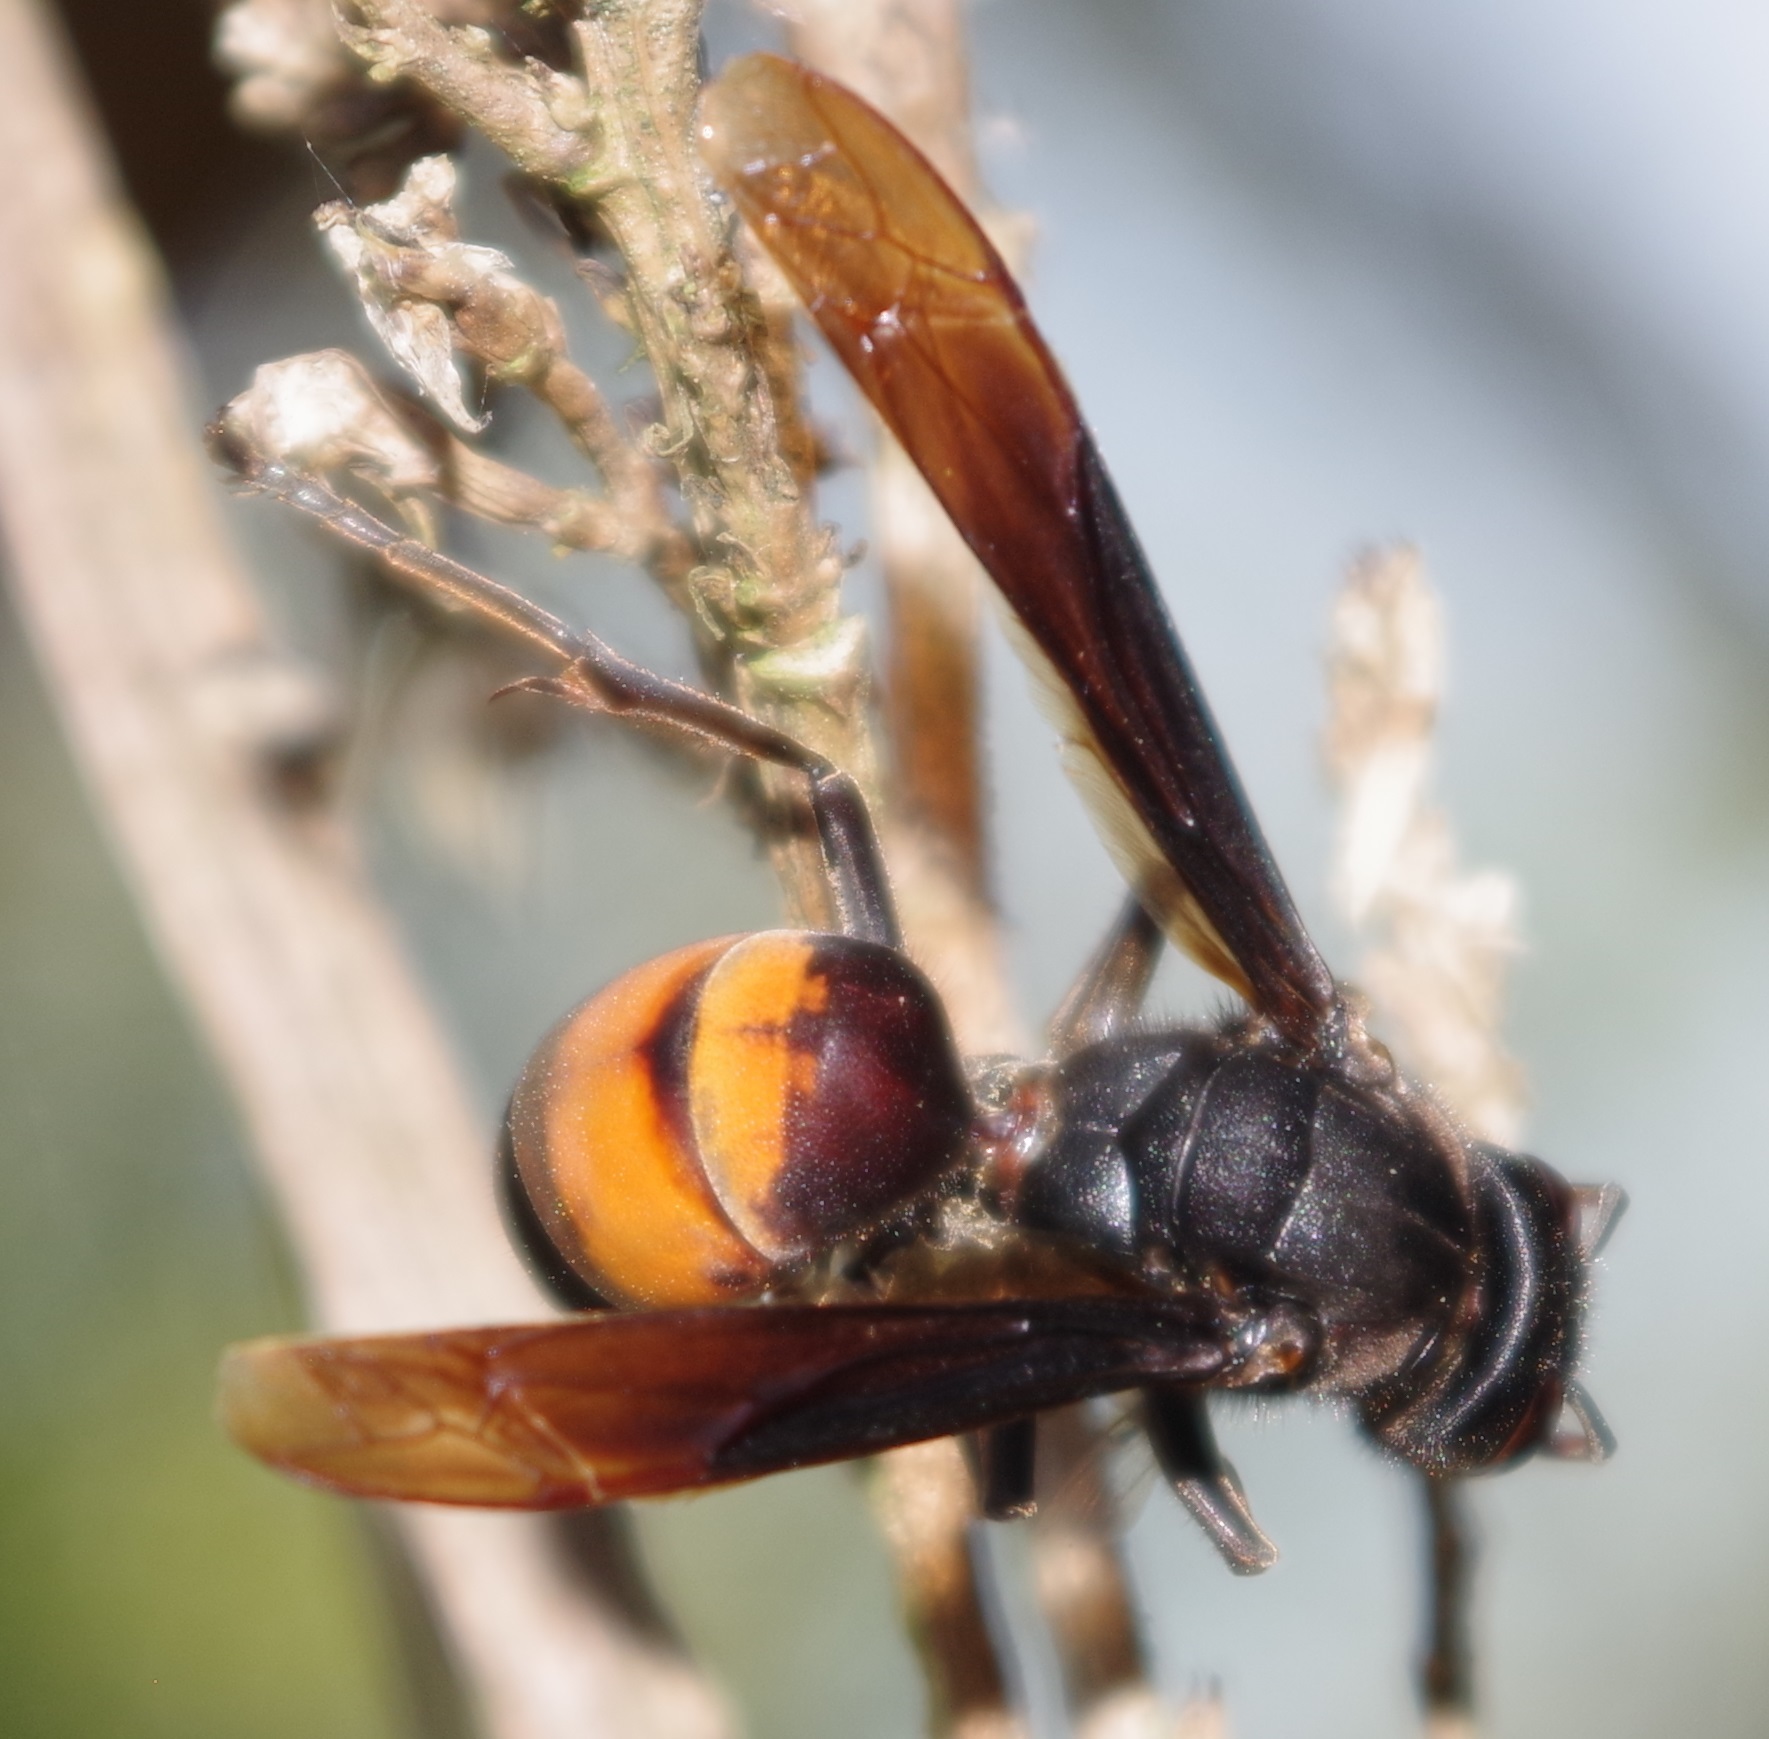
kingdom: Animalia
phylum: Arthropoda
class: Insecta
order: Hymenoptera
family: Vespidae
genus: Vespa
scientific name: Vespa affinis
